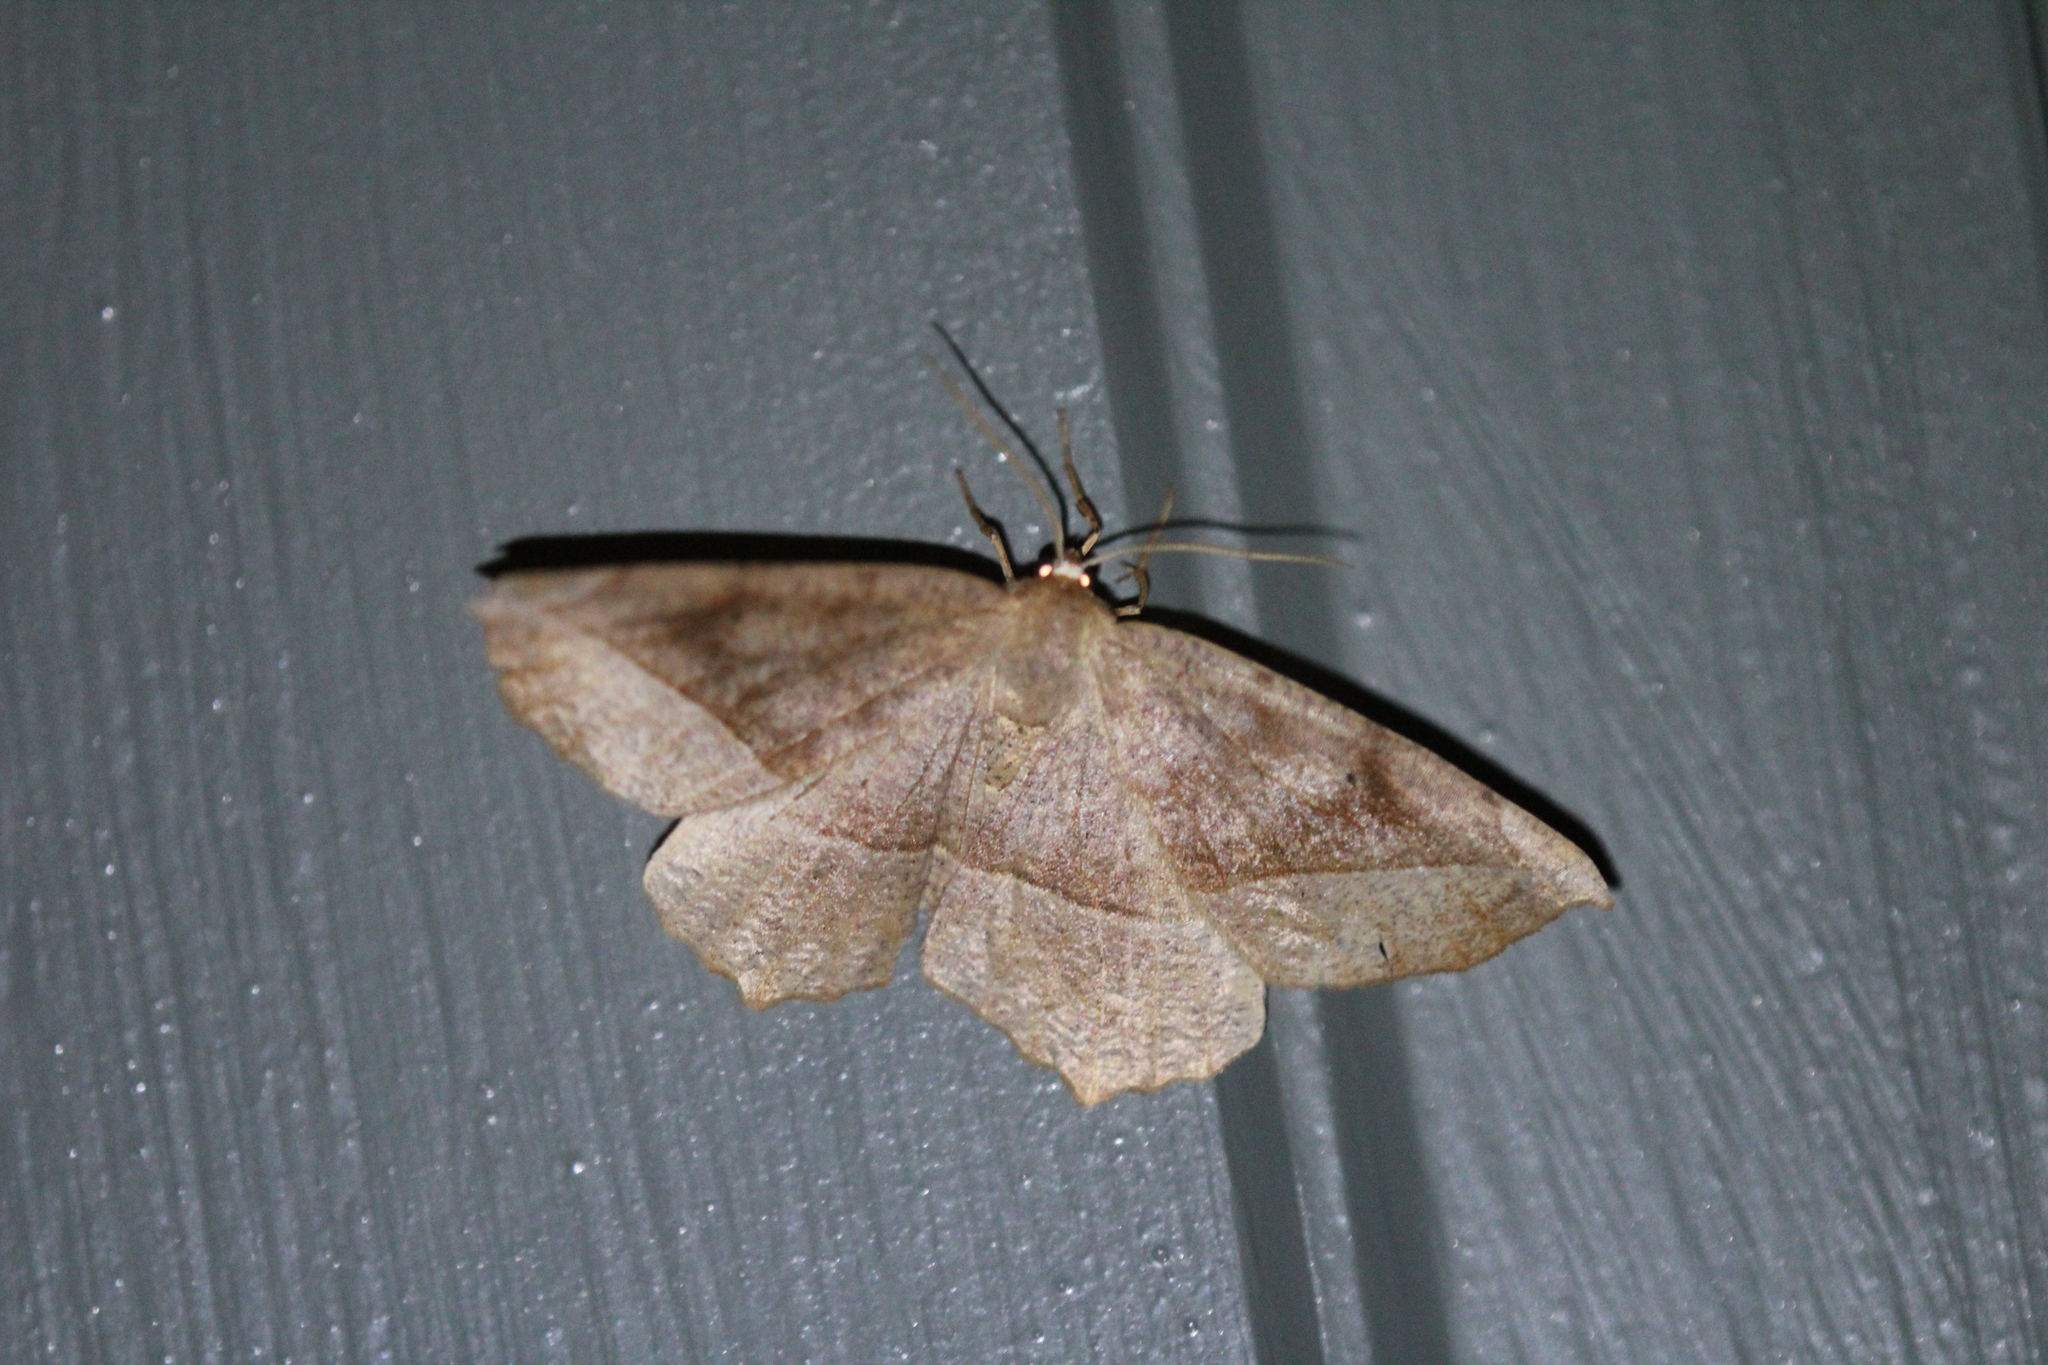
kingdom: Animalia
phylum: Arthropoda
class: Insecta
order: Lepidoptera
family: Geometridae
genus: Eutrapela
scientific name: Eutrapela clemataria
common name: Curved-toothed geometer
